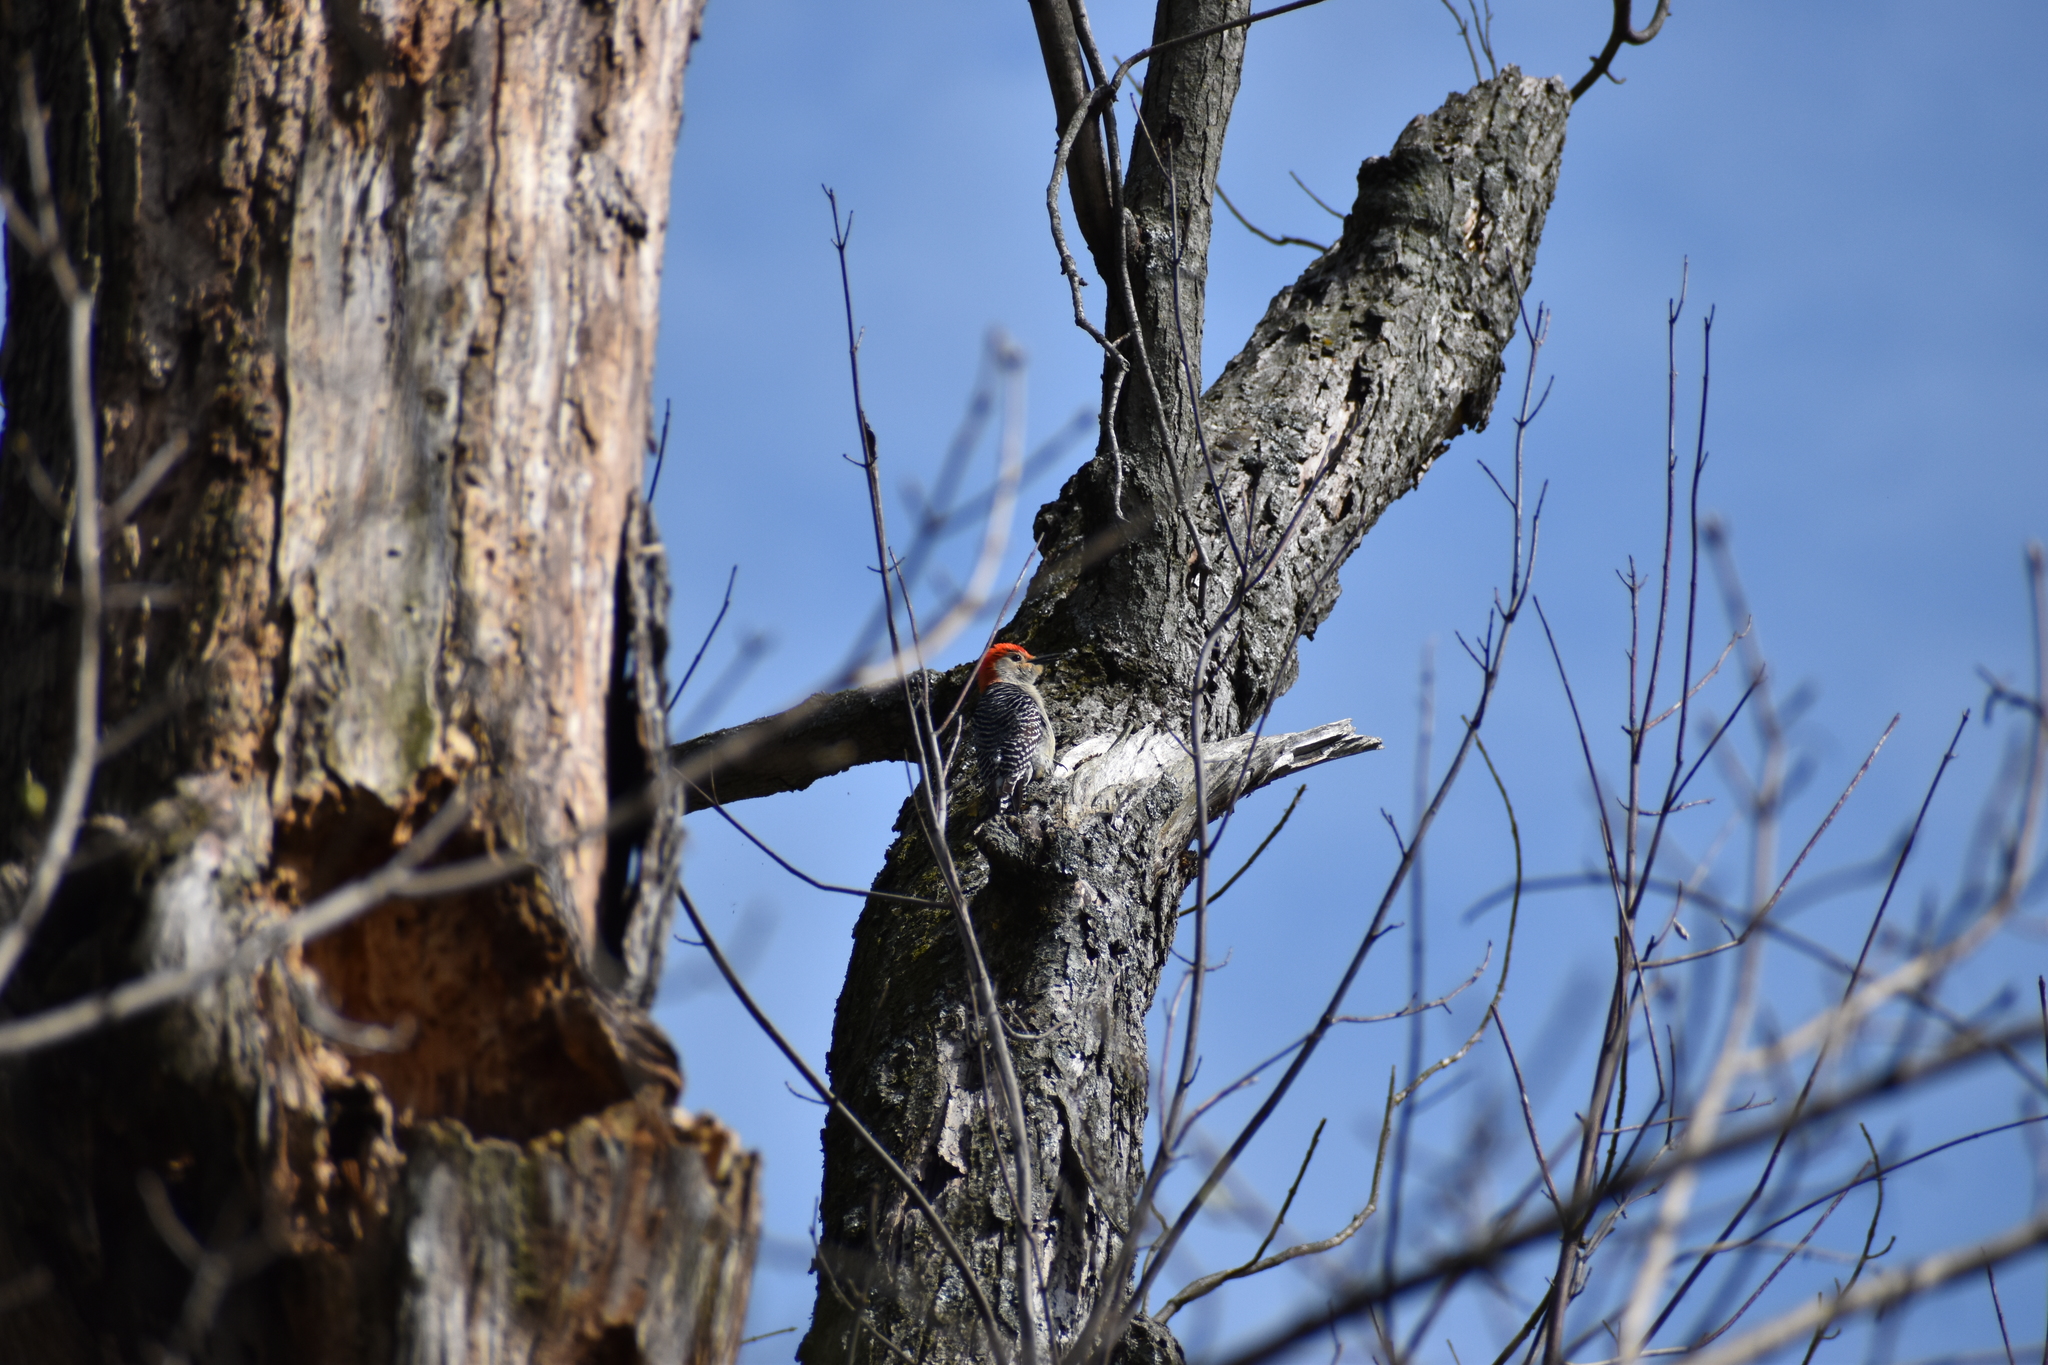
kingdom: Animalia
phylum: Chordata
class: Aves
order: Piciformes
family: Picidae
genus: Melanerpes
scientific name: Melanerpes carolinus
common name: Red-bellied woodpecker
